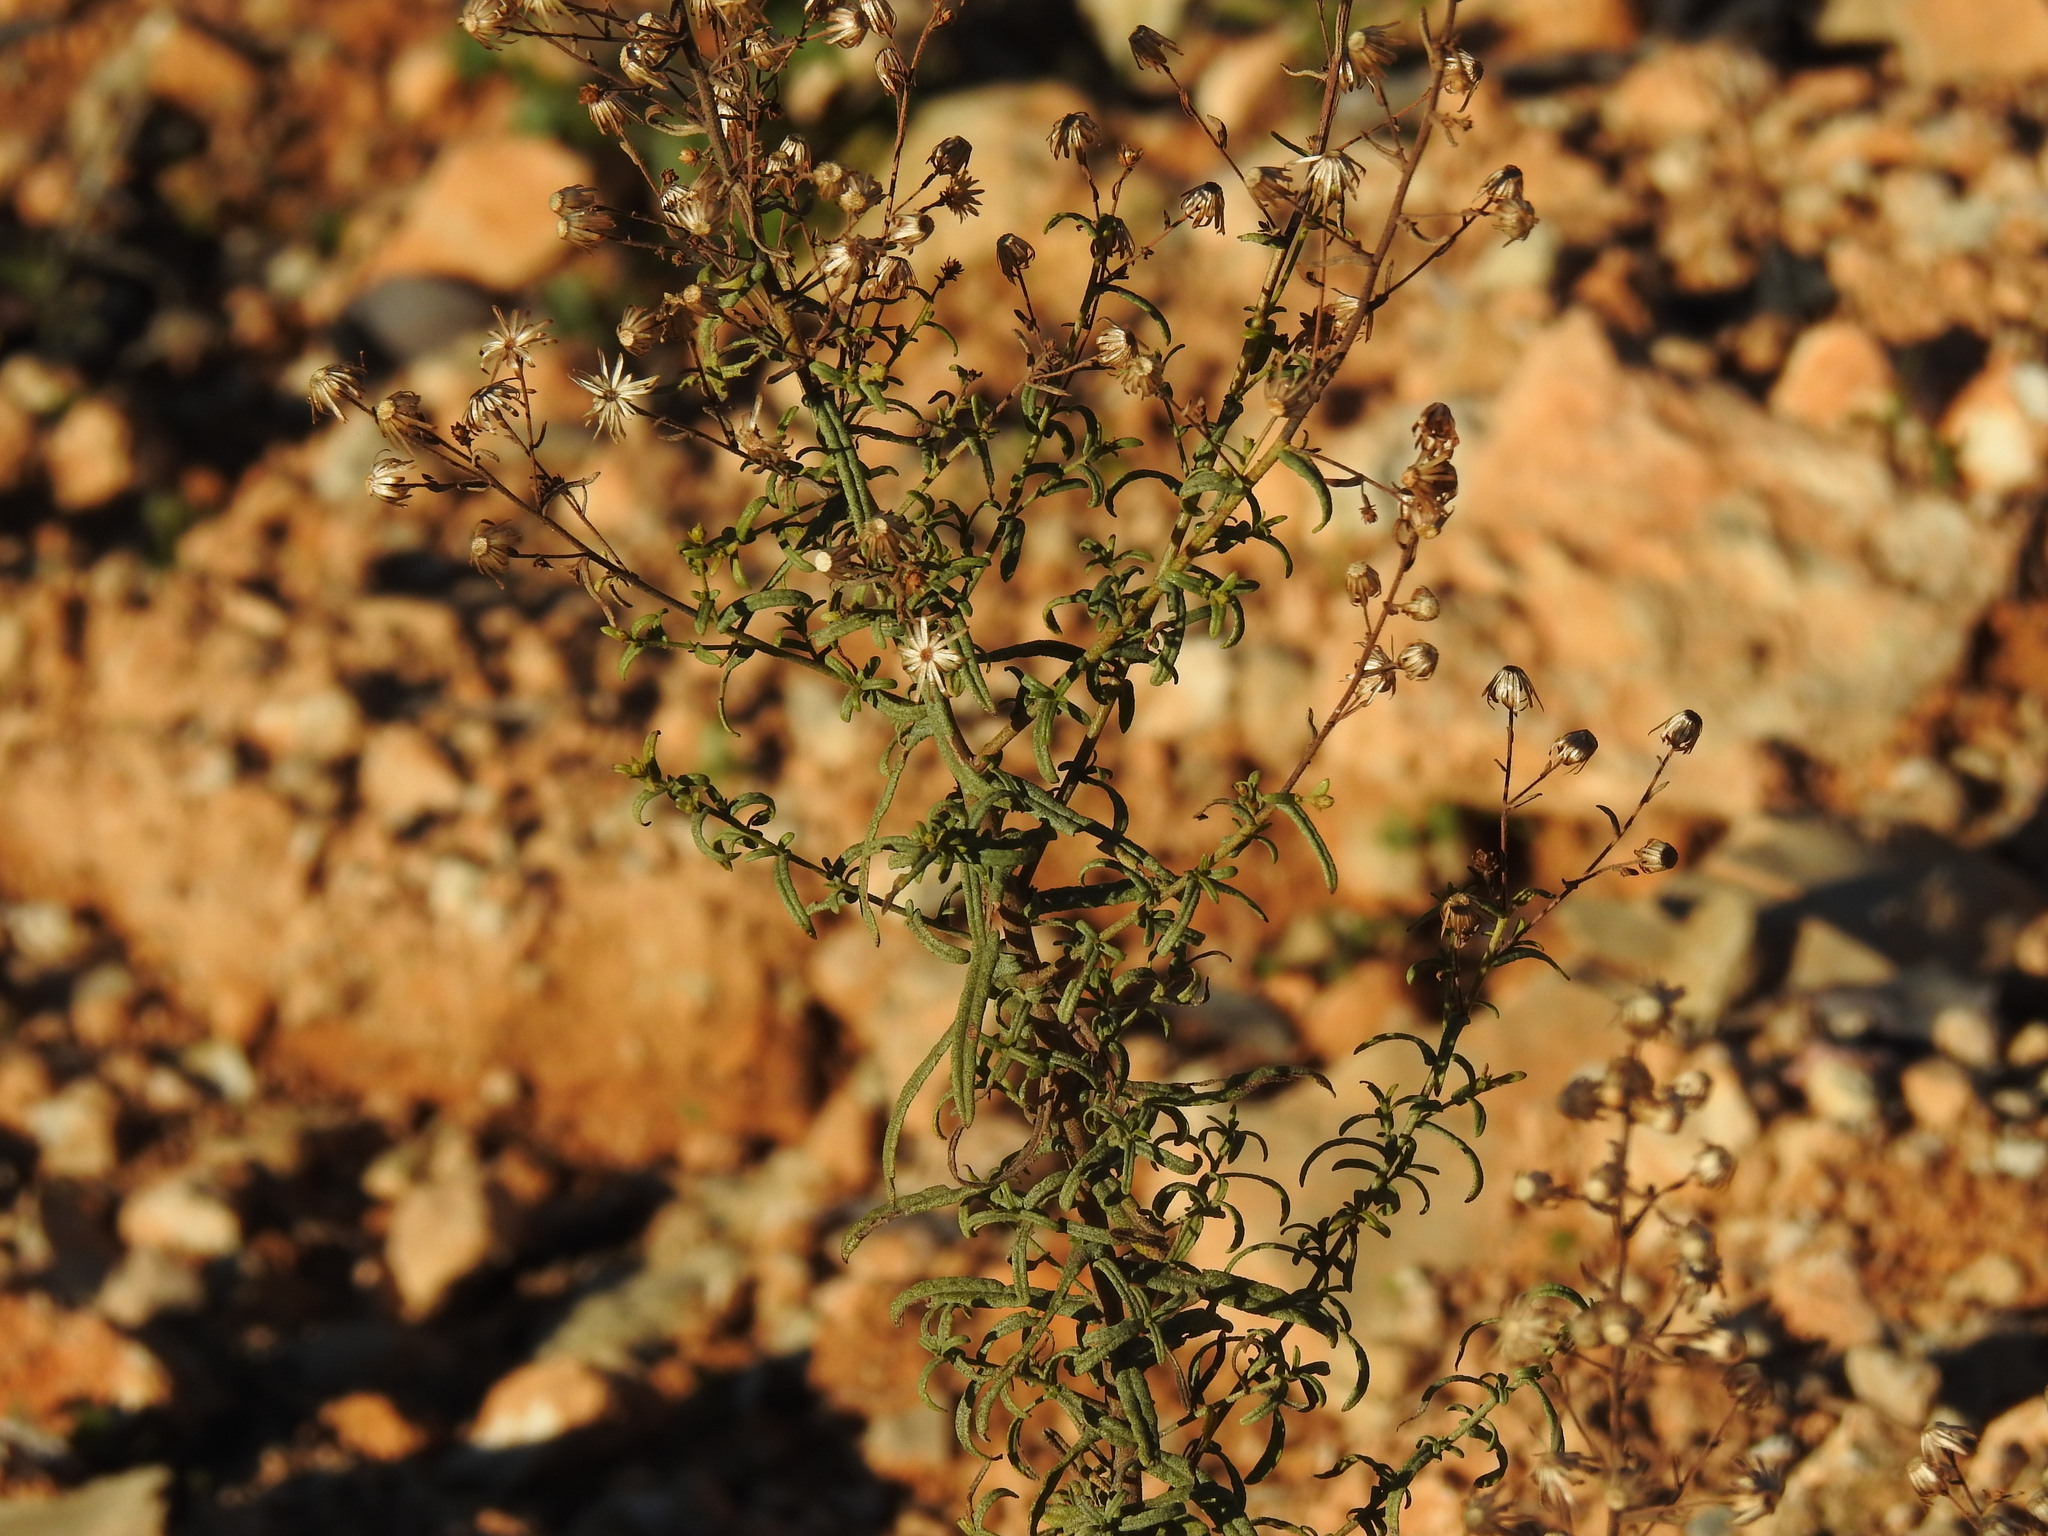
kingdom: Plantae
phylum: Tracheophyta
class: Magnoliopsida
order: Asterales
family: Asteraceae
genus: Dittrichia
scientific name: Dittrichia viscosa
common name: Woody fleabane
